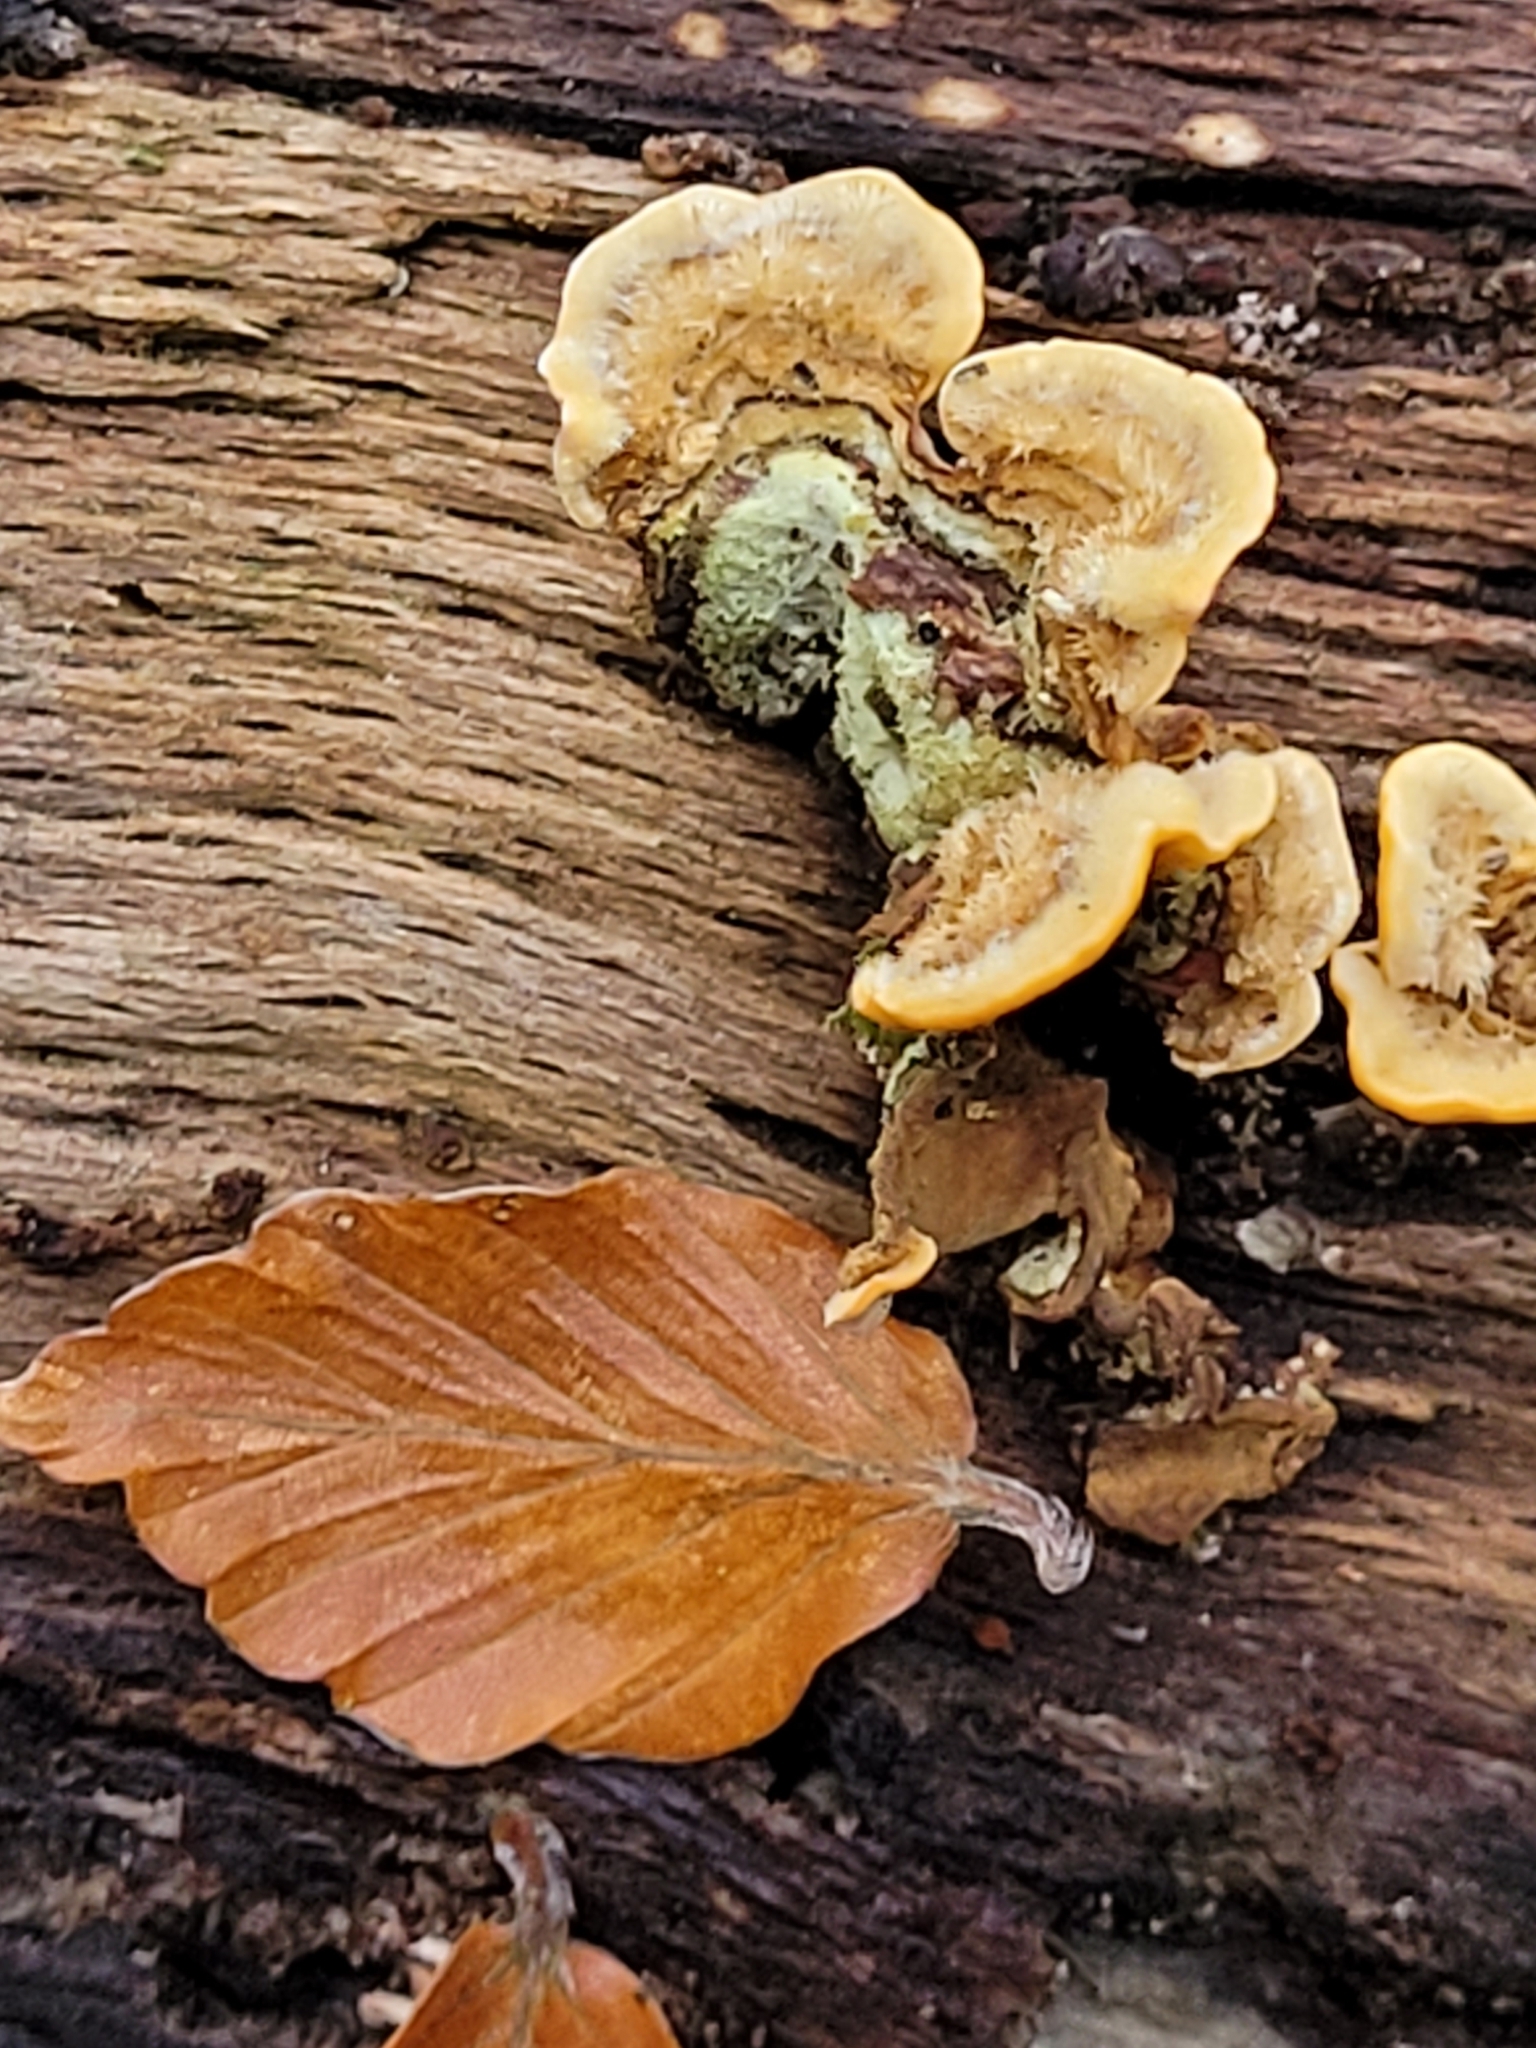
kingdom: Fungi
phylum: Basidiomycota
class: Agaricomycetes
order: Russulales
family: Stereaceae
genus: Stereum
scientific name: Stereum hirsutum
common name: Hairy curtain crust
